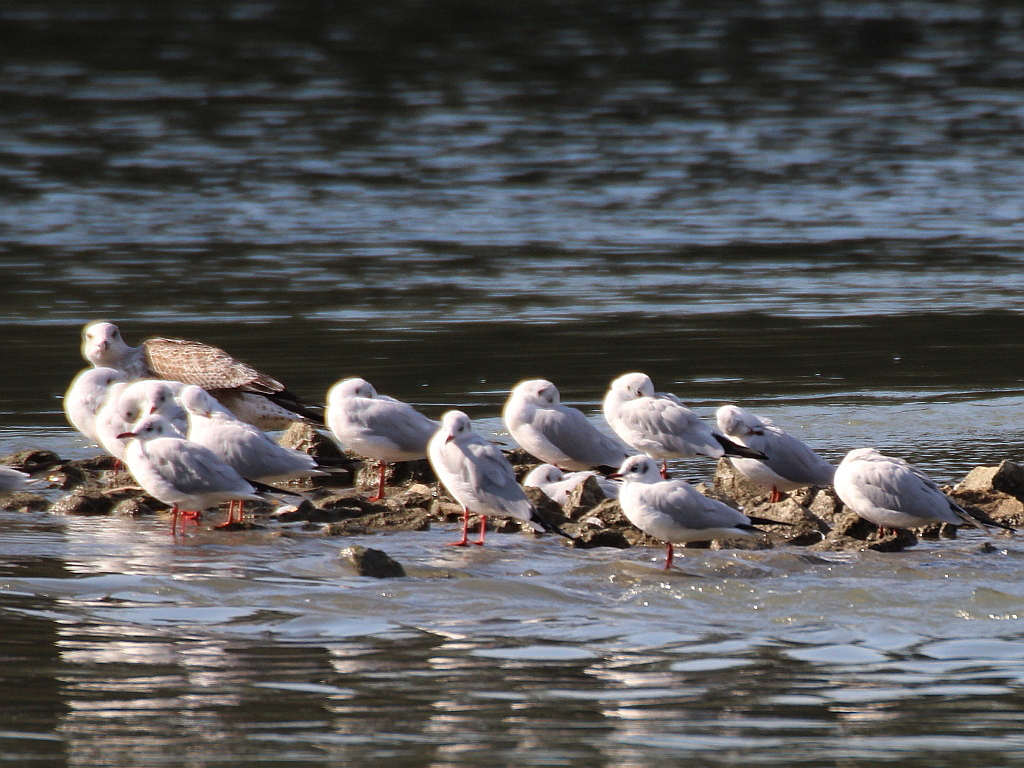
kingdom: Animalia
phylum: Chordata
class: Aves
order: Charadriiformes
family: Laridae
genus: Chroicocephalus
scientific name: Chroicocephalus ridibundus
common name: Black-headed gull
